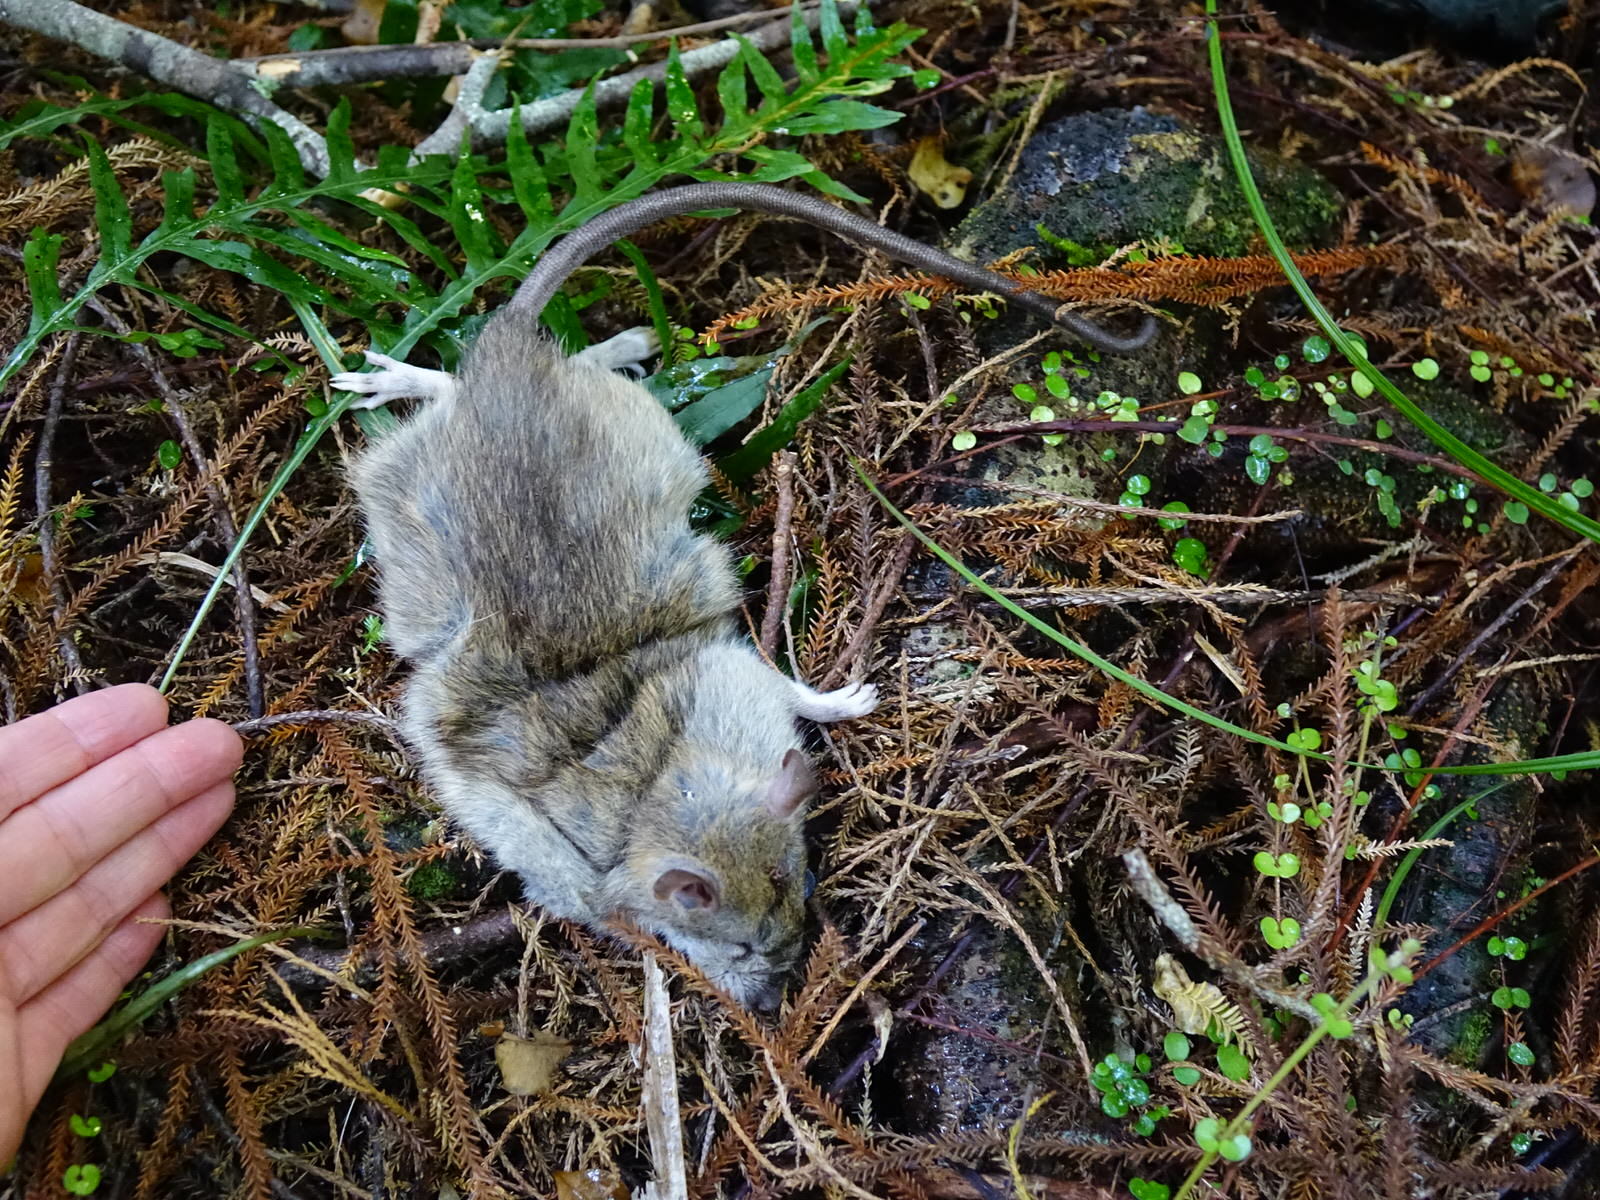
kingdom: Animalia
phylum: Chordata
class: Mammalia
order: Rodentia
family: Muridae
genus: Rattus
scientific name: Rattus rattus
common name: Black rat
